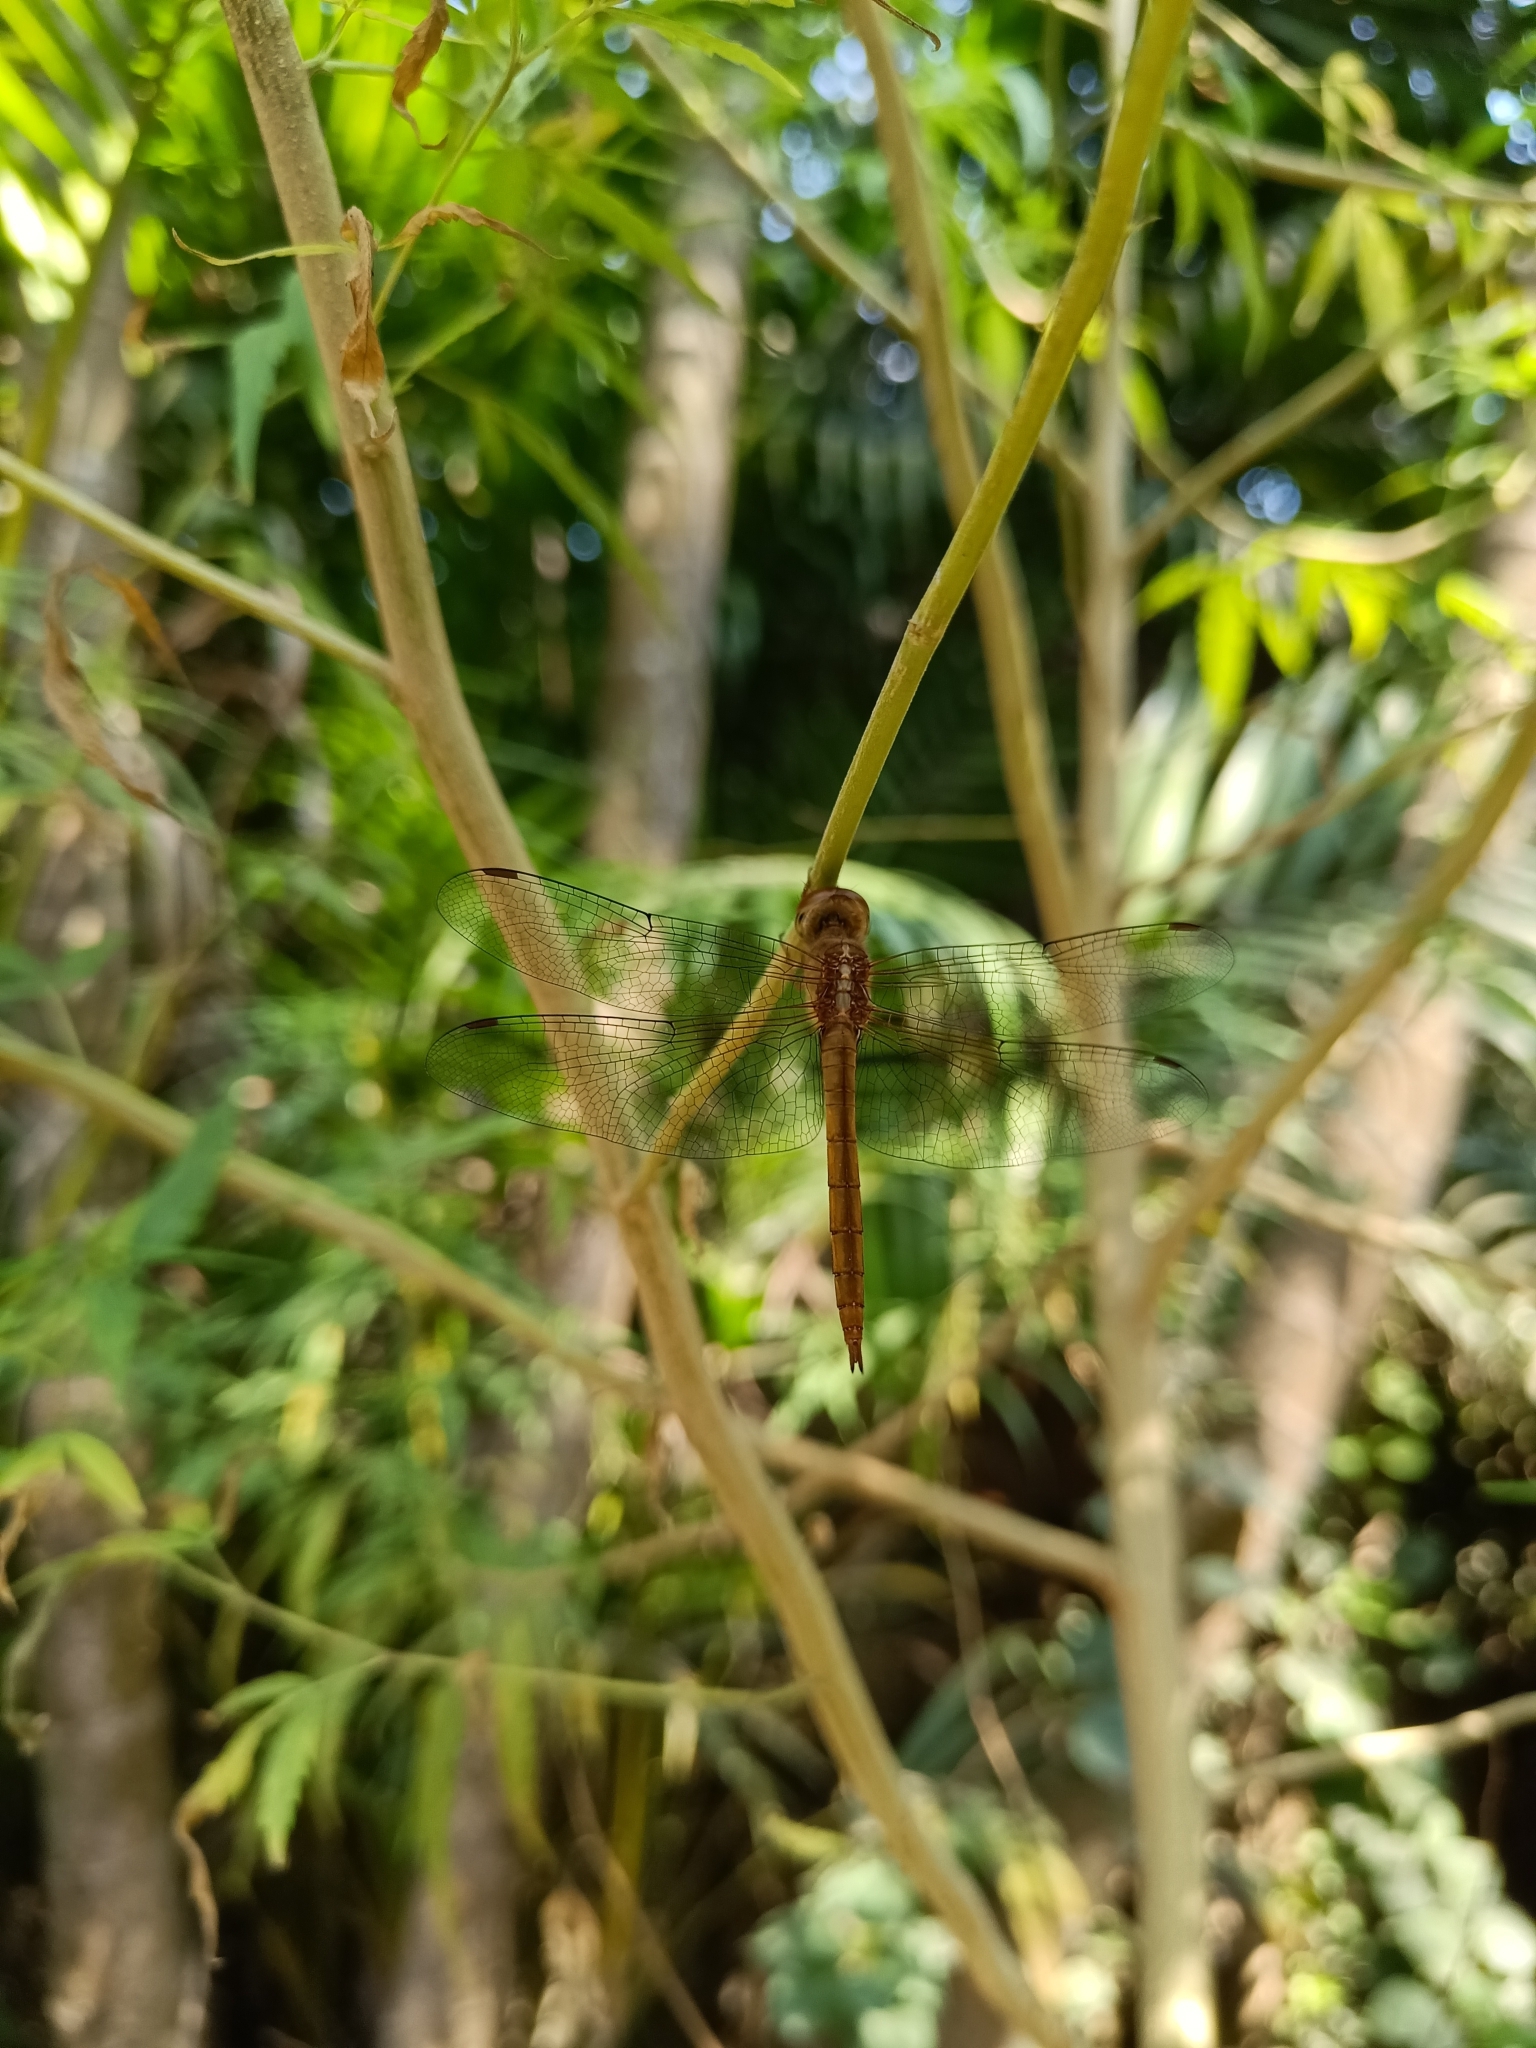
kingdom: Animalia
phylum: Arthropoda
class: Insecta
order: Odonata
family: Libellulidae
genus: Tholymis
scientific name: Tholymis tillarga
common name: Coral-tailed cloud wing
